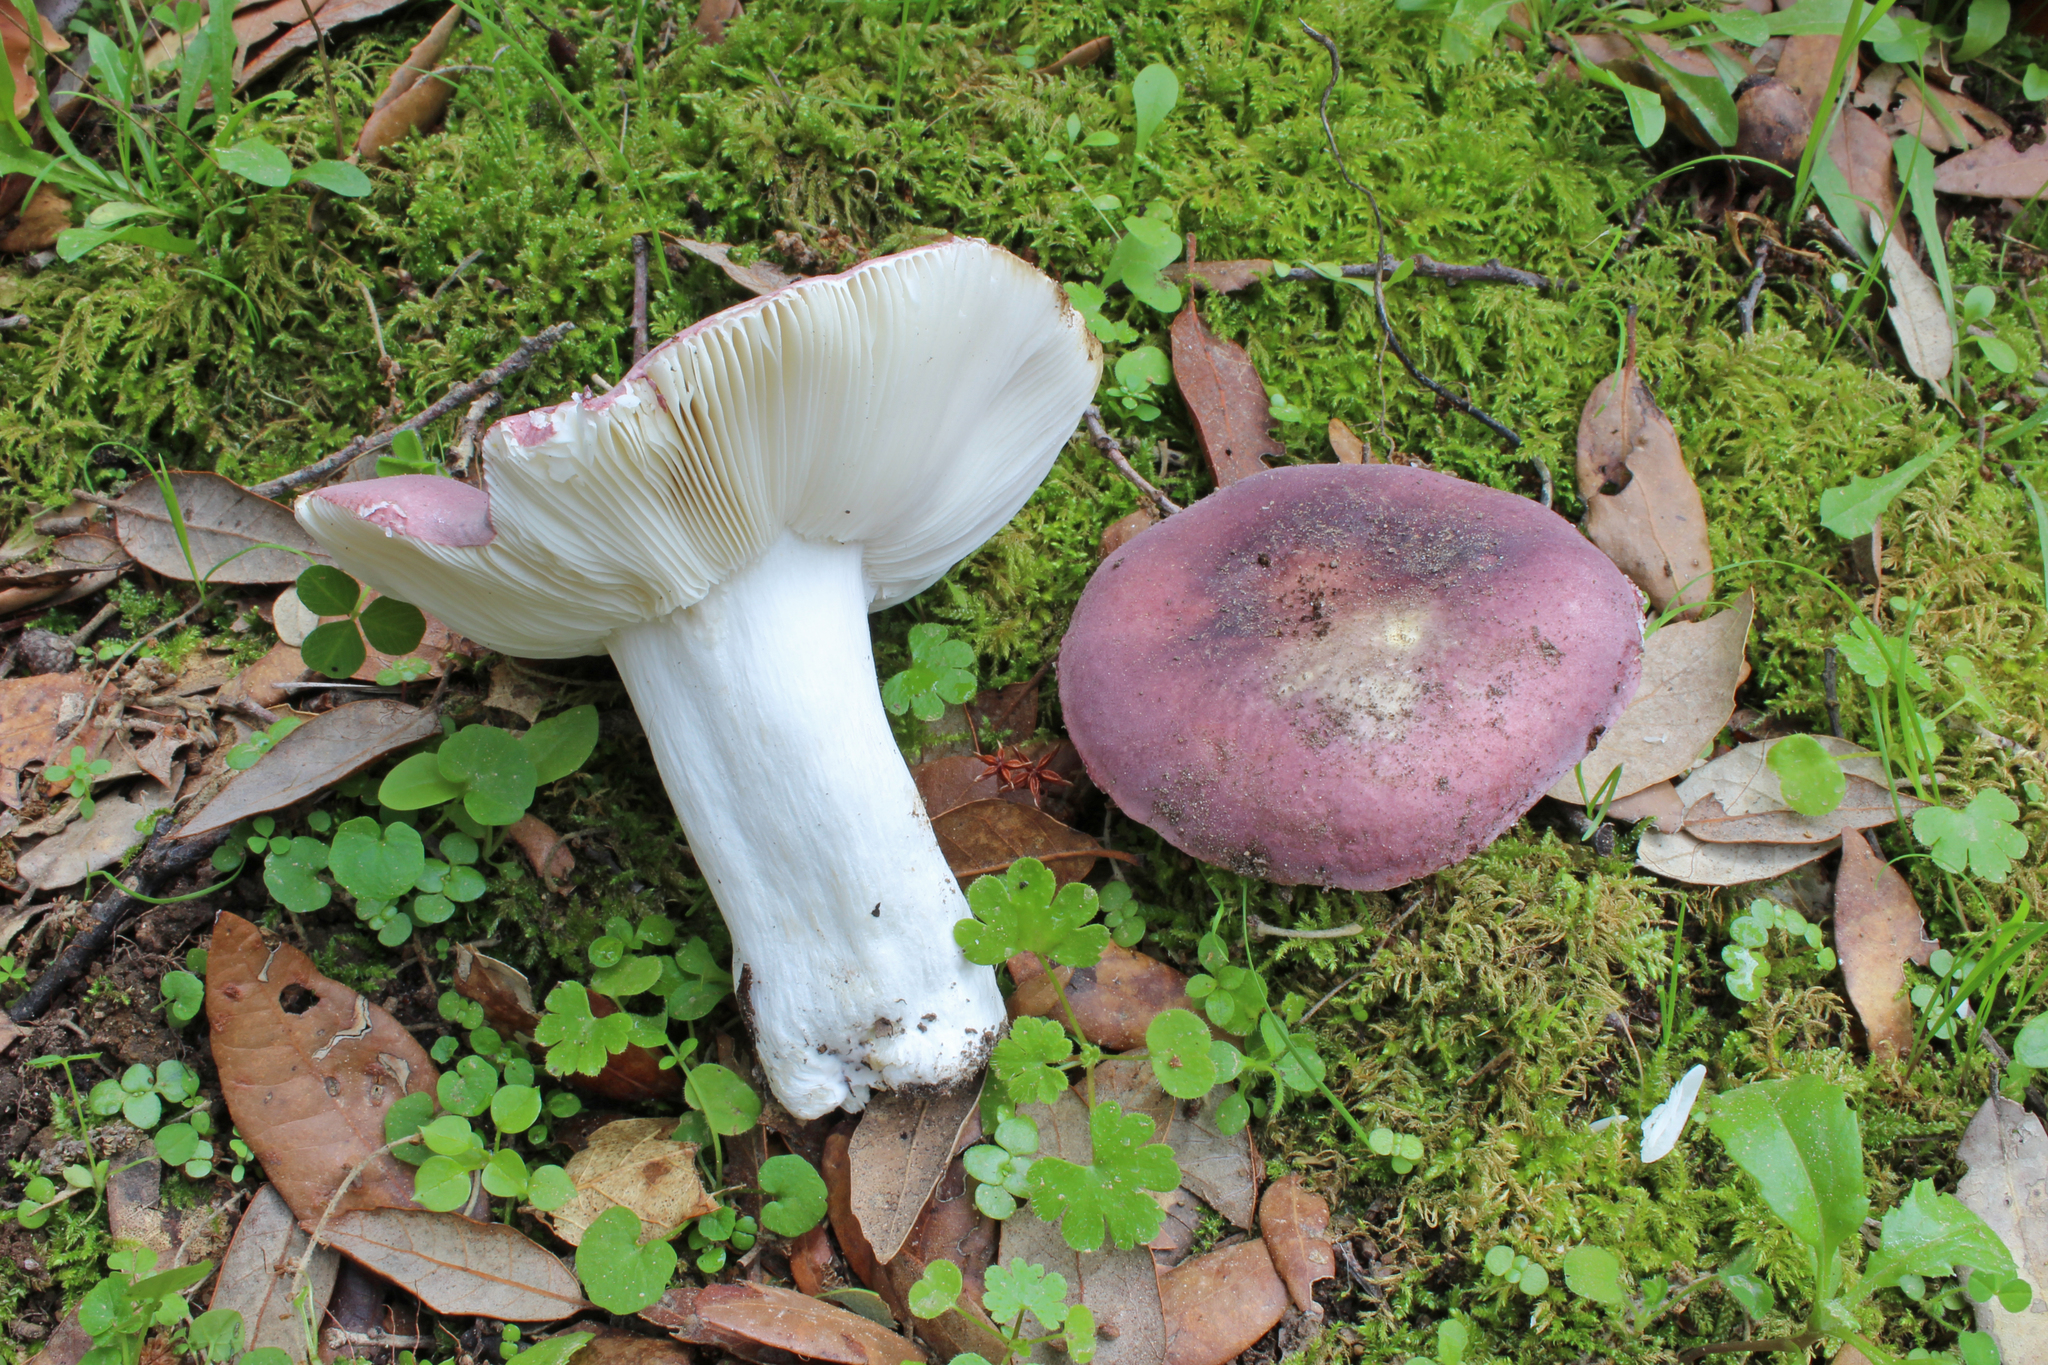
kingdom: Fungi
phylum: Basidiomycota
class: Agaricomycetes
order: Russulales
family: Russulaceae
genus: Russula
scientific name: Russula subazurea
